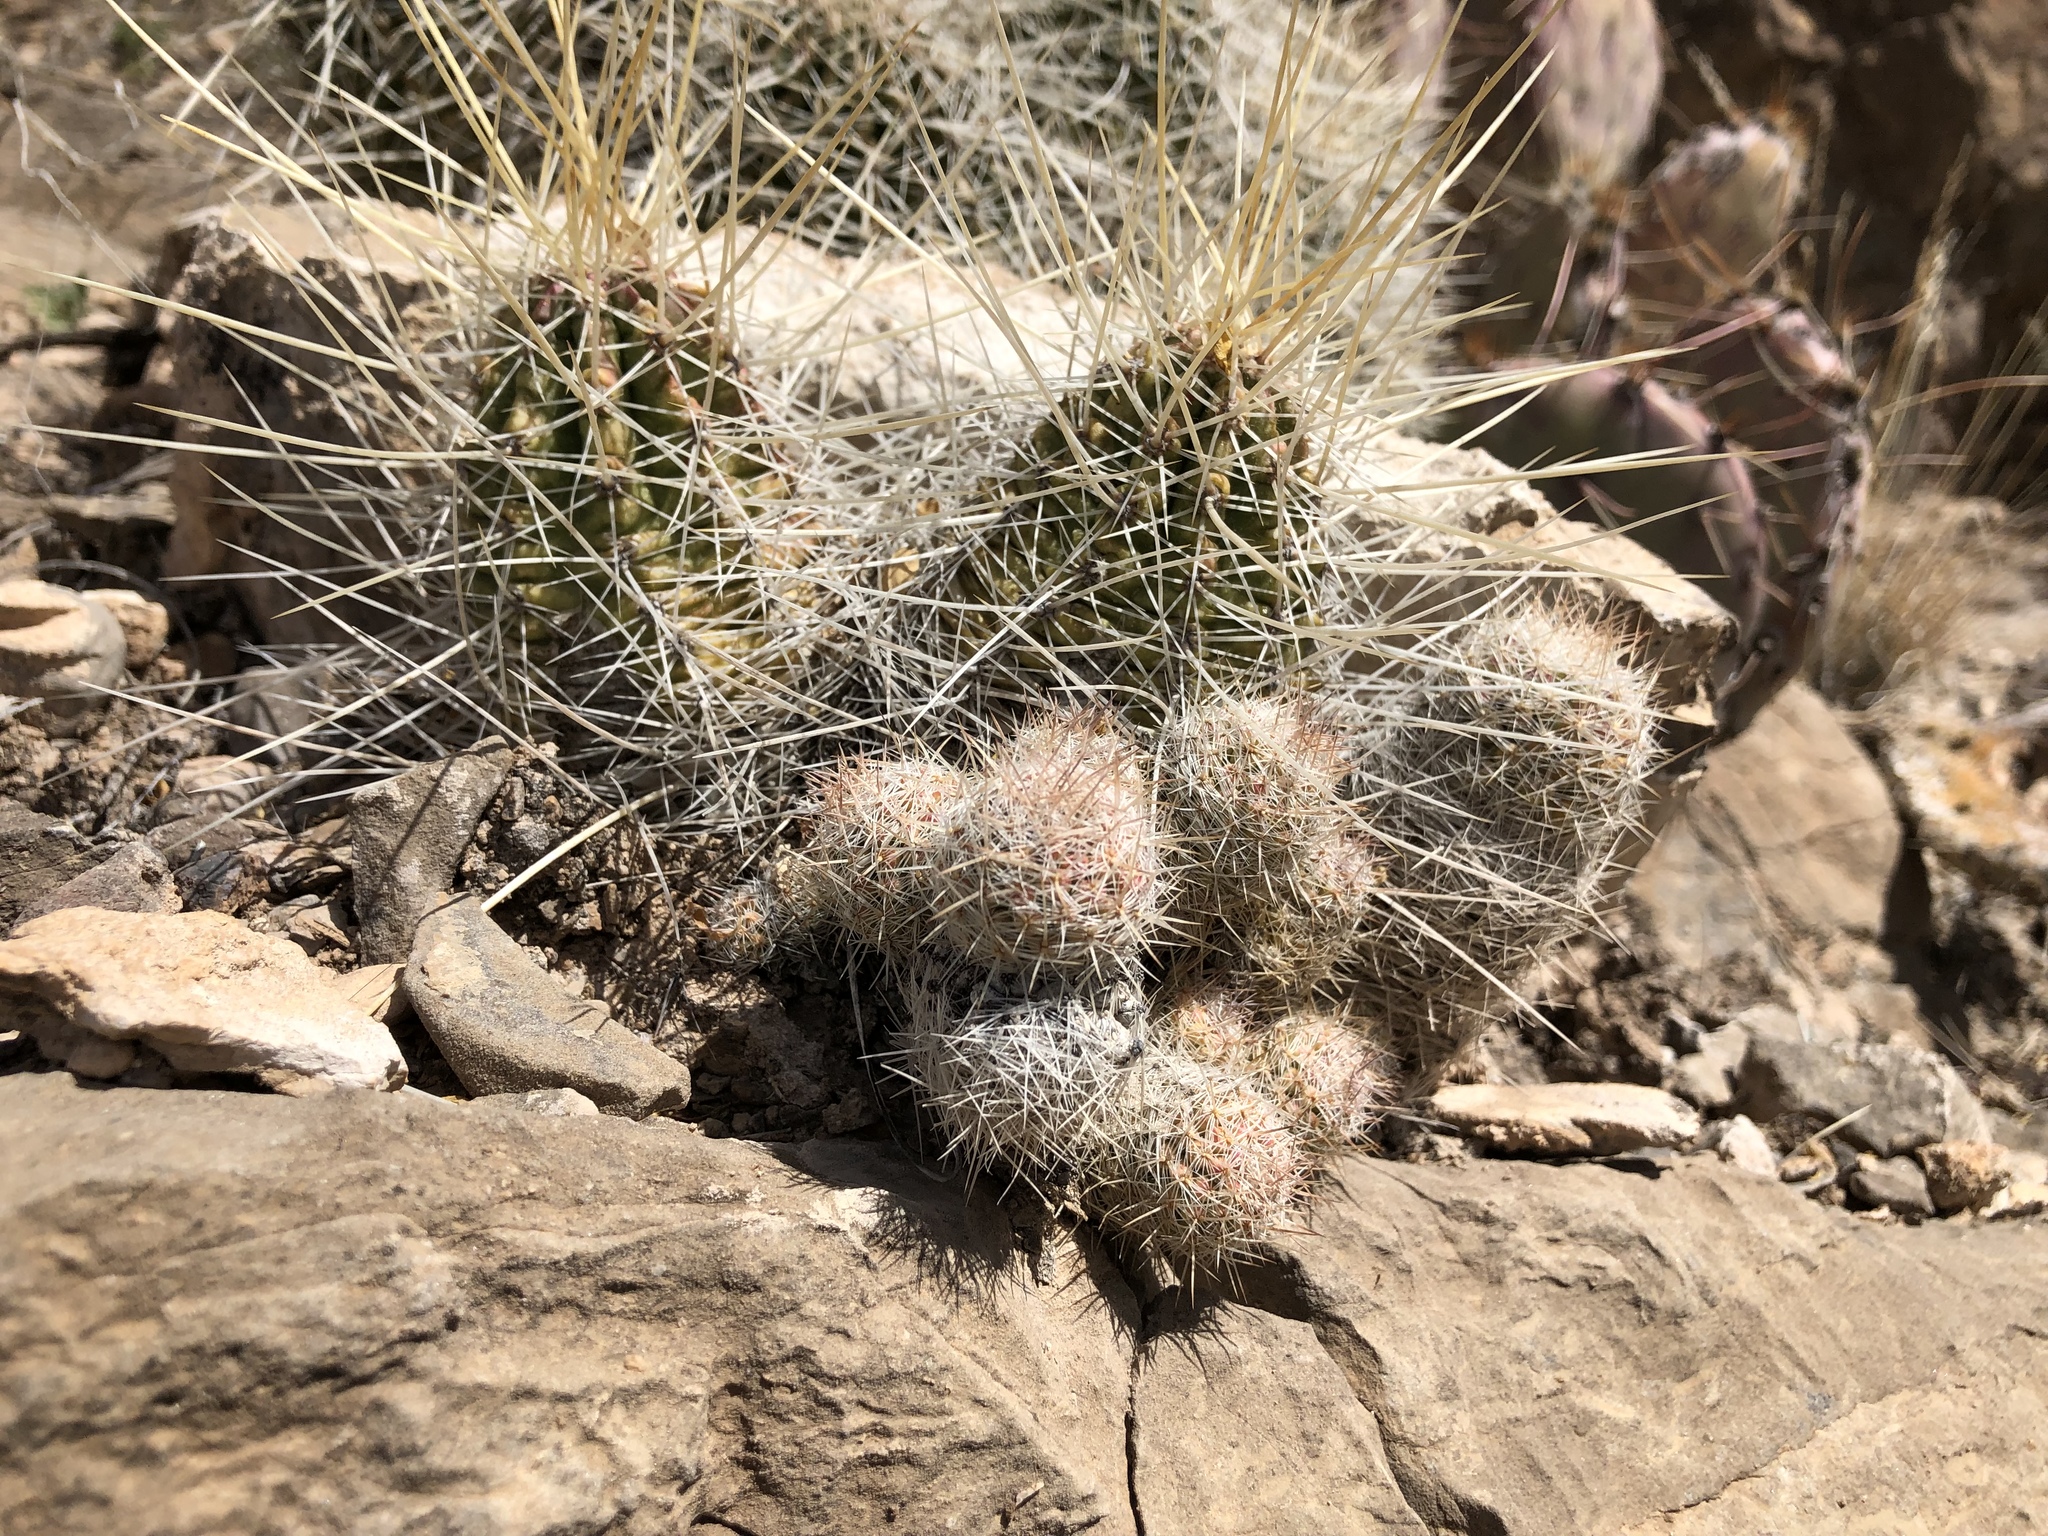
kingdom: Plantae
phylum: Tracheophyta
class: Magnoliopsida
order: Caryophyllales
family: Cactaceae
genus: Pelecyphora
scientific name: Pelecyphora tuberculosa
